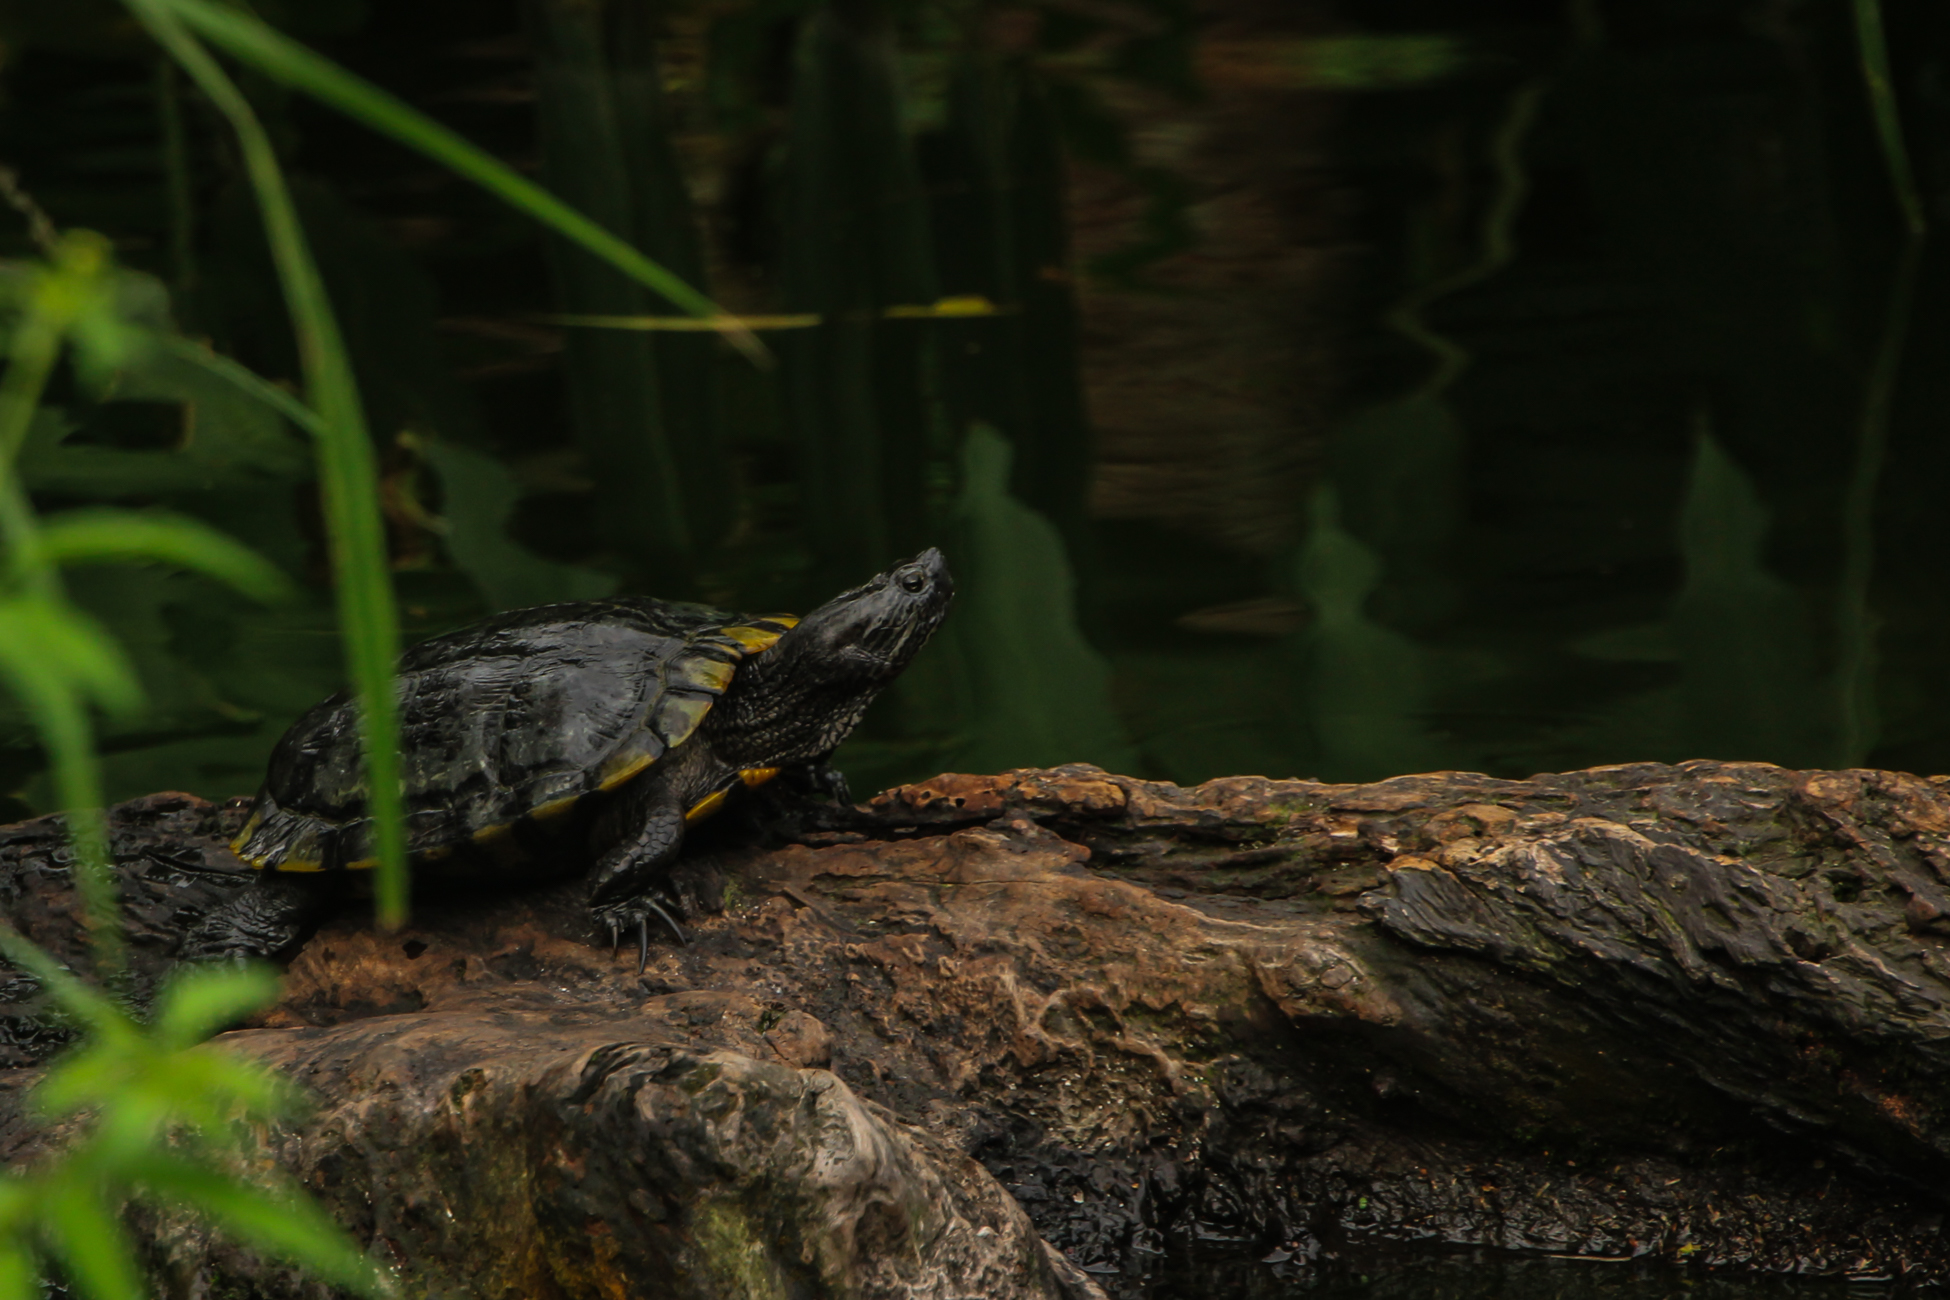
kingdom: Animalia
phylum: Chordata
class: Testudines
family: Emydidae
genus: Trachemys
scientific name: Trachemys scripta
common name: Slider
